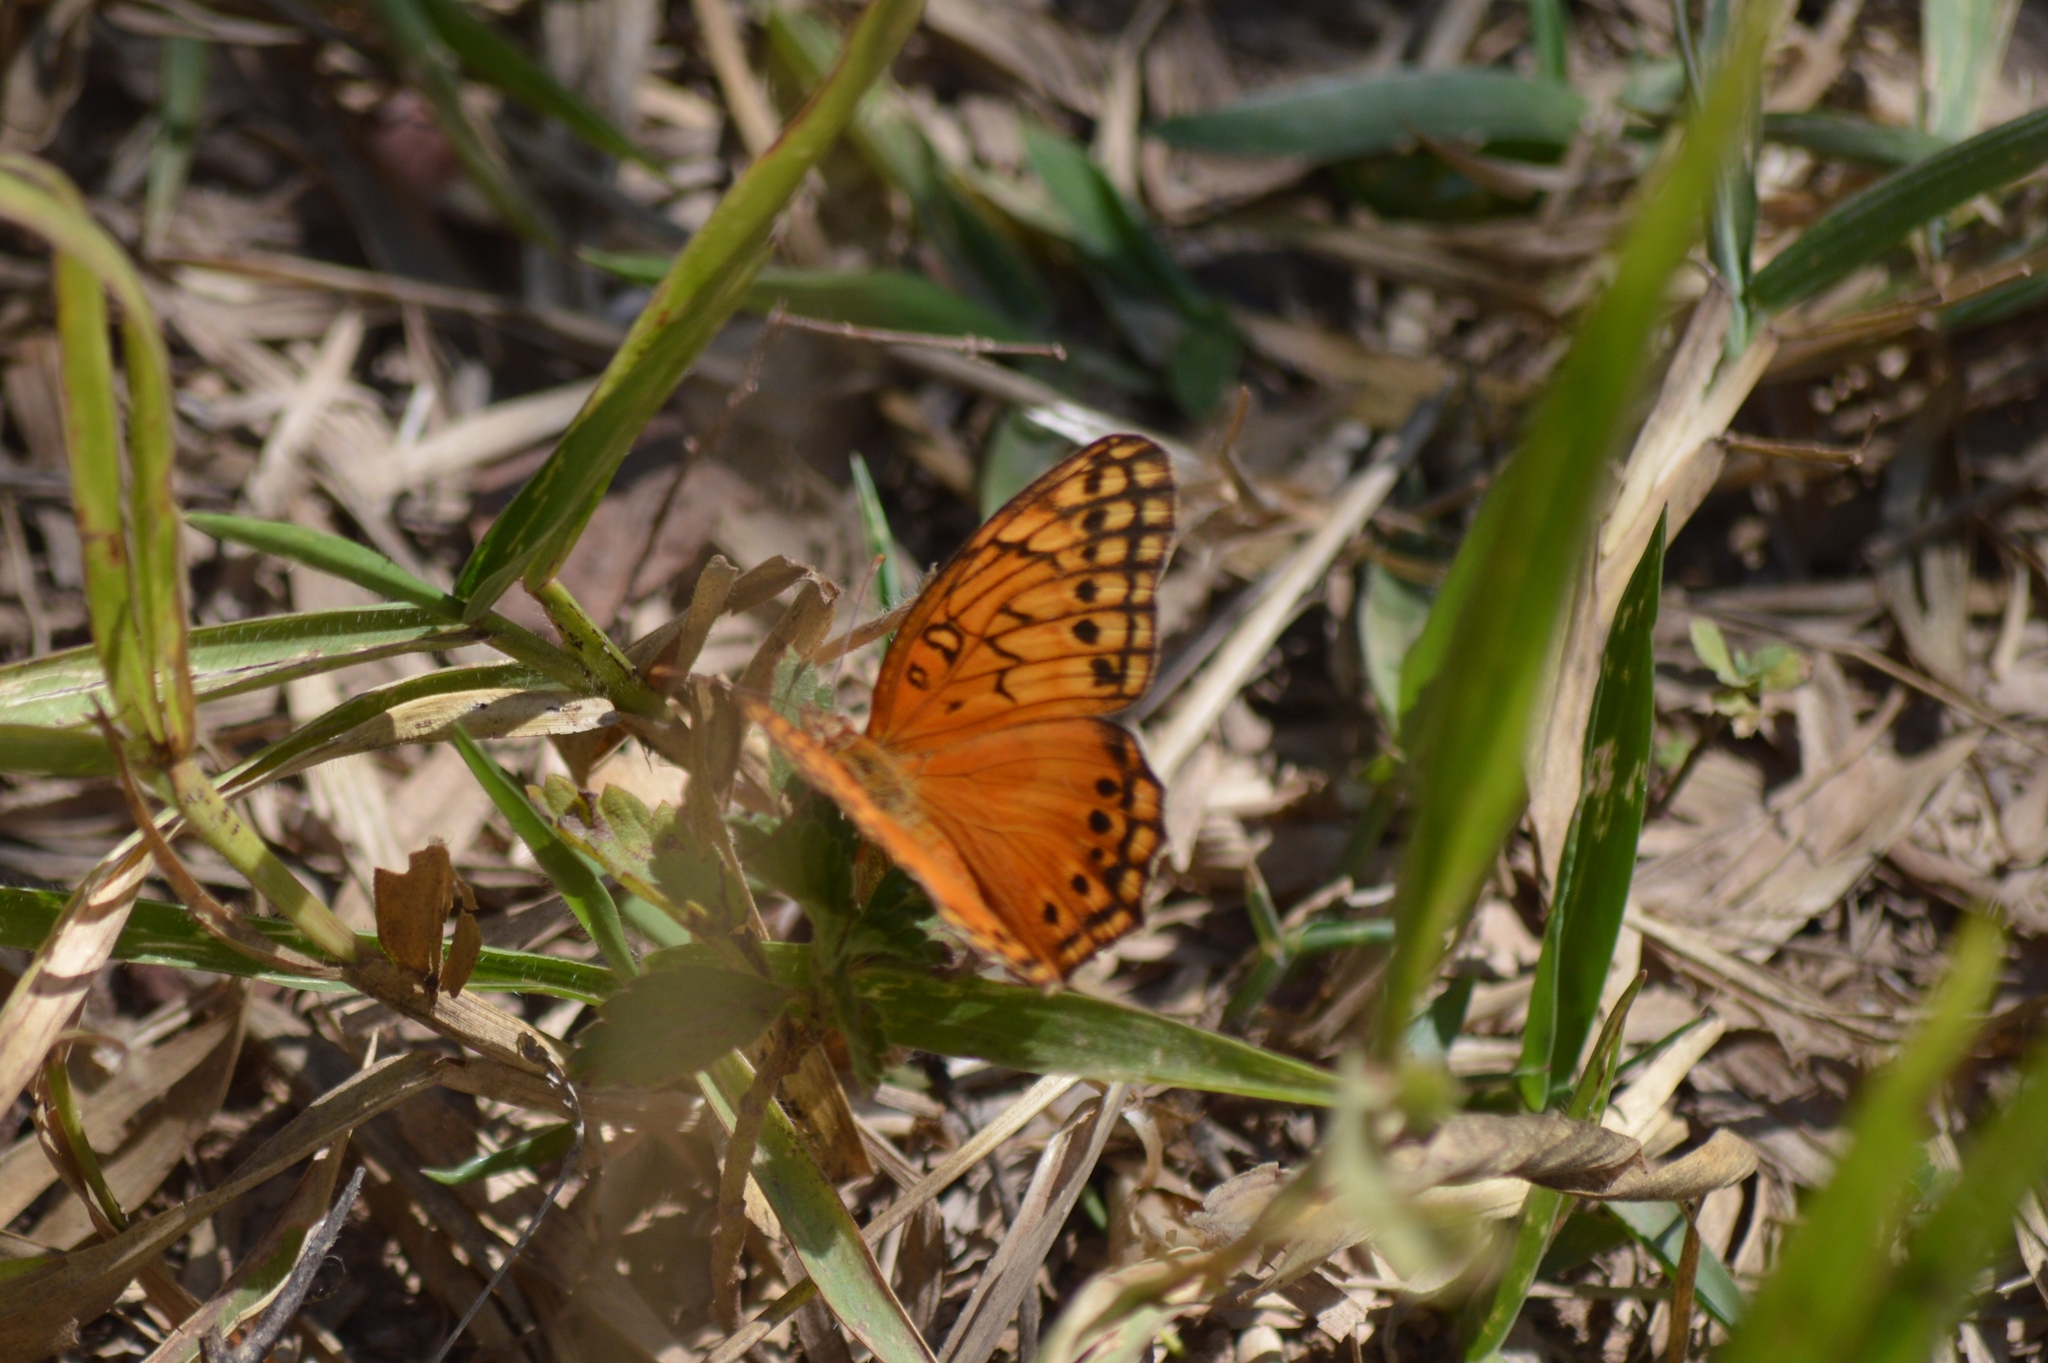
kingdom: Animalia
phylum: Arthropoda
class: Insecta
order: Lepidoptera
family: Nymphalidae
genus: Euptoieta
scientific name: Euptoieta hegesia
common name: Mexican fritillary
